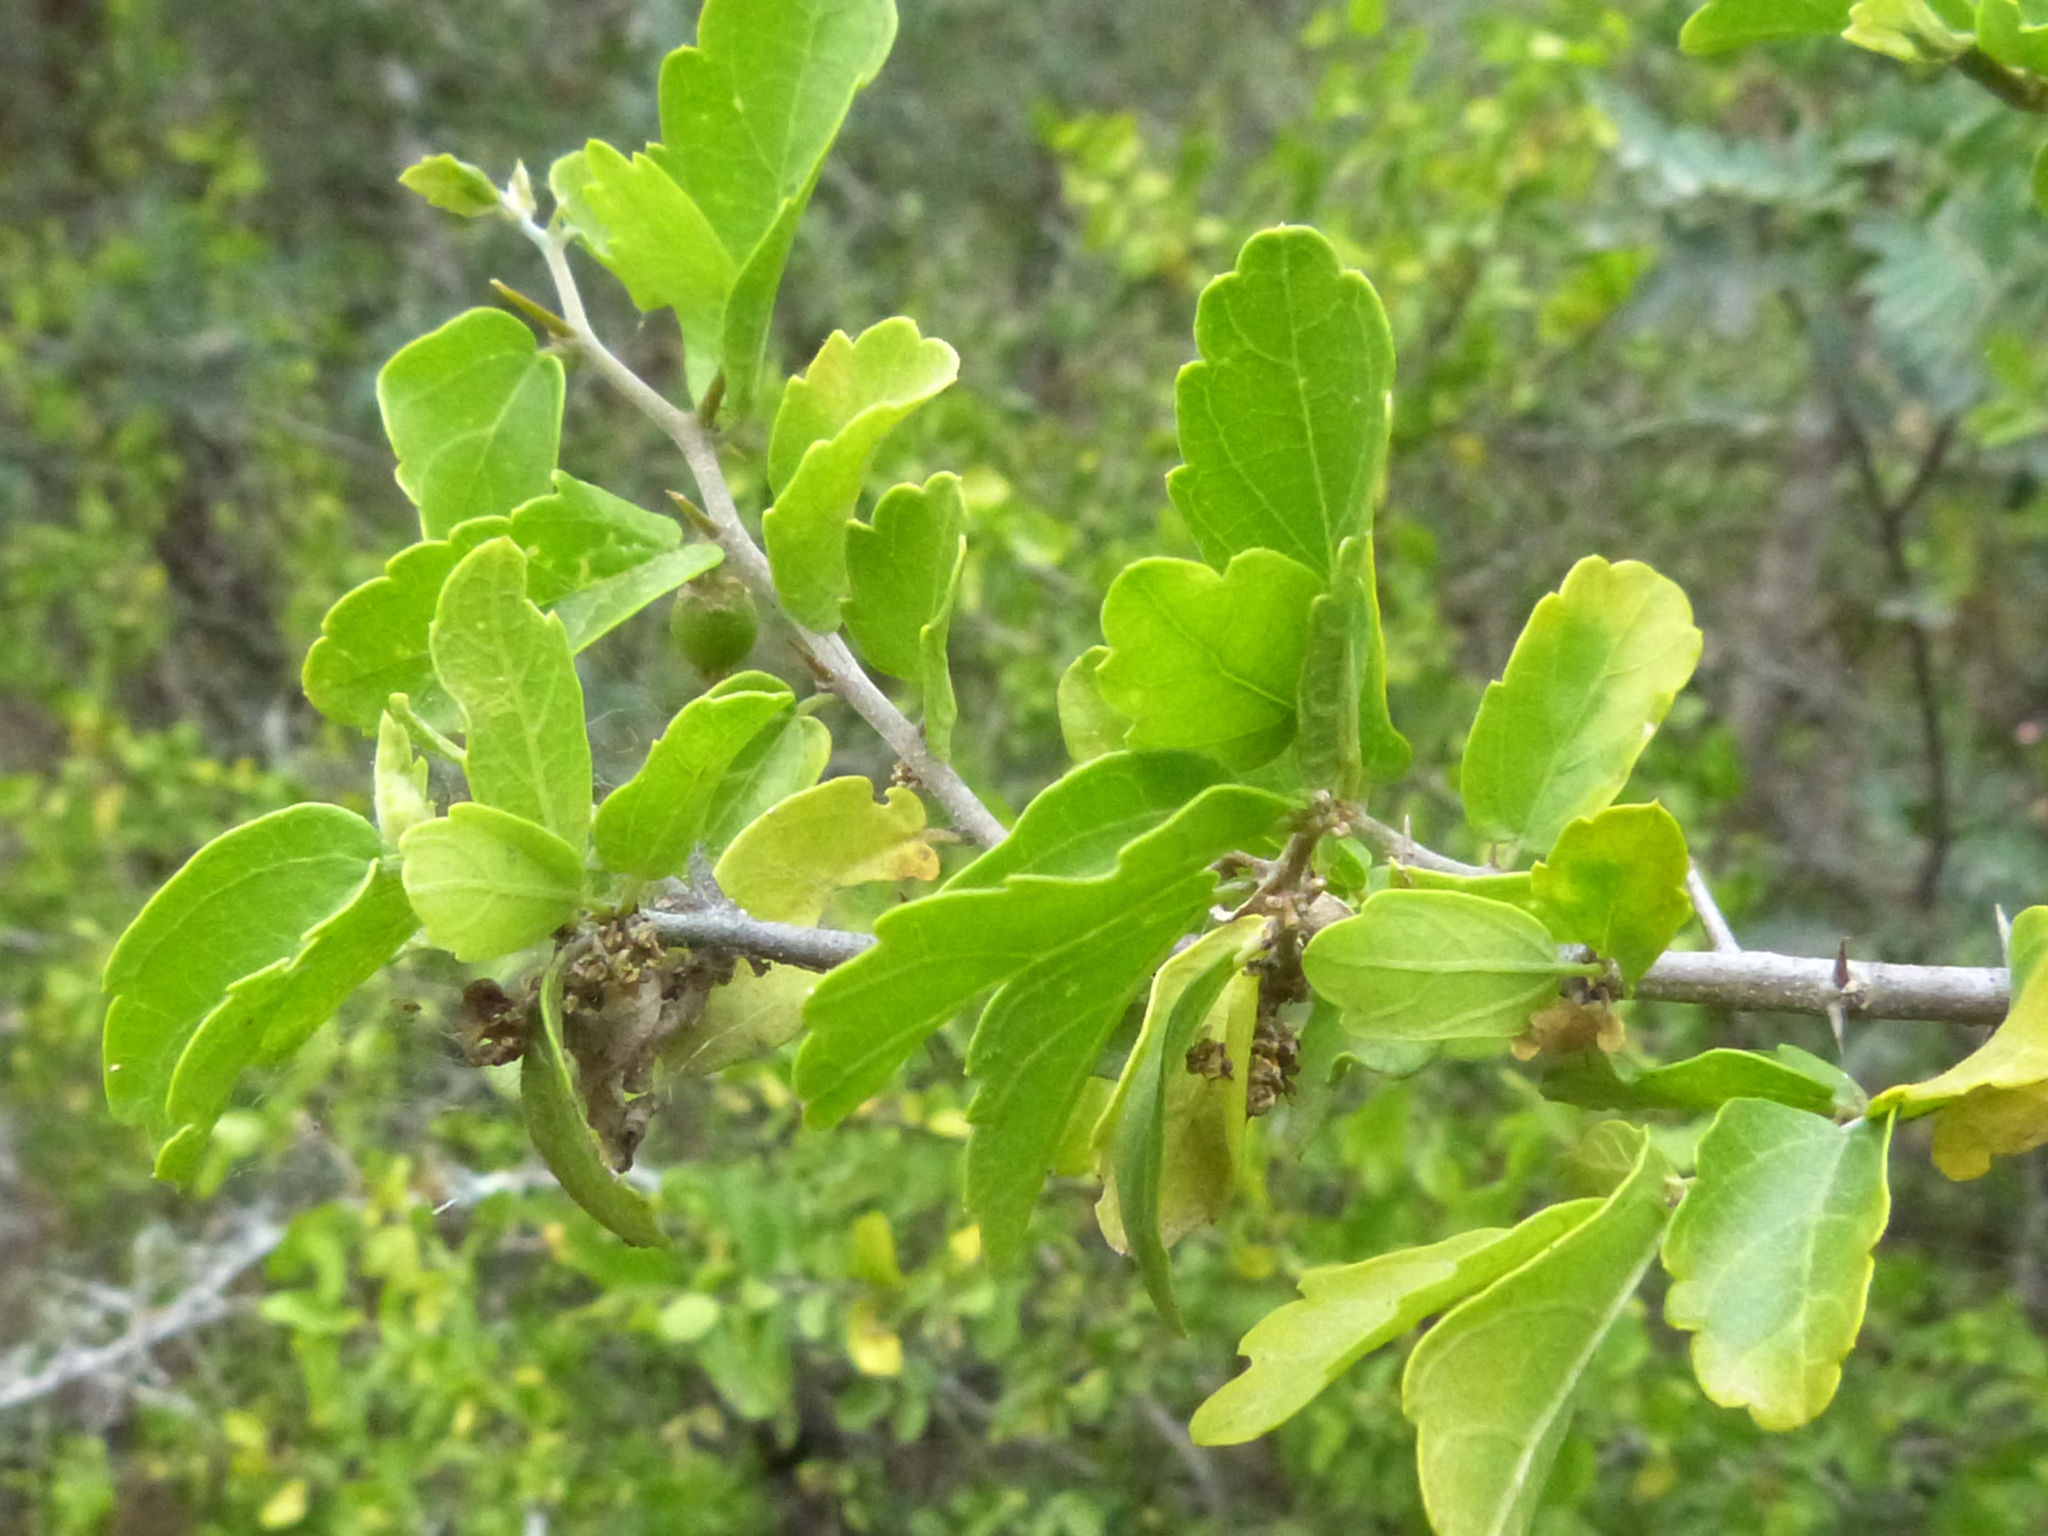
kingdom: Plantae
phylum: Tracheophyta
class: Magnoliopsida
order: Rosales
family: Cannabaceae
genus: Celtis
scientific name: Celtis pallida
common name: Desert hackberry
